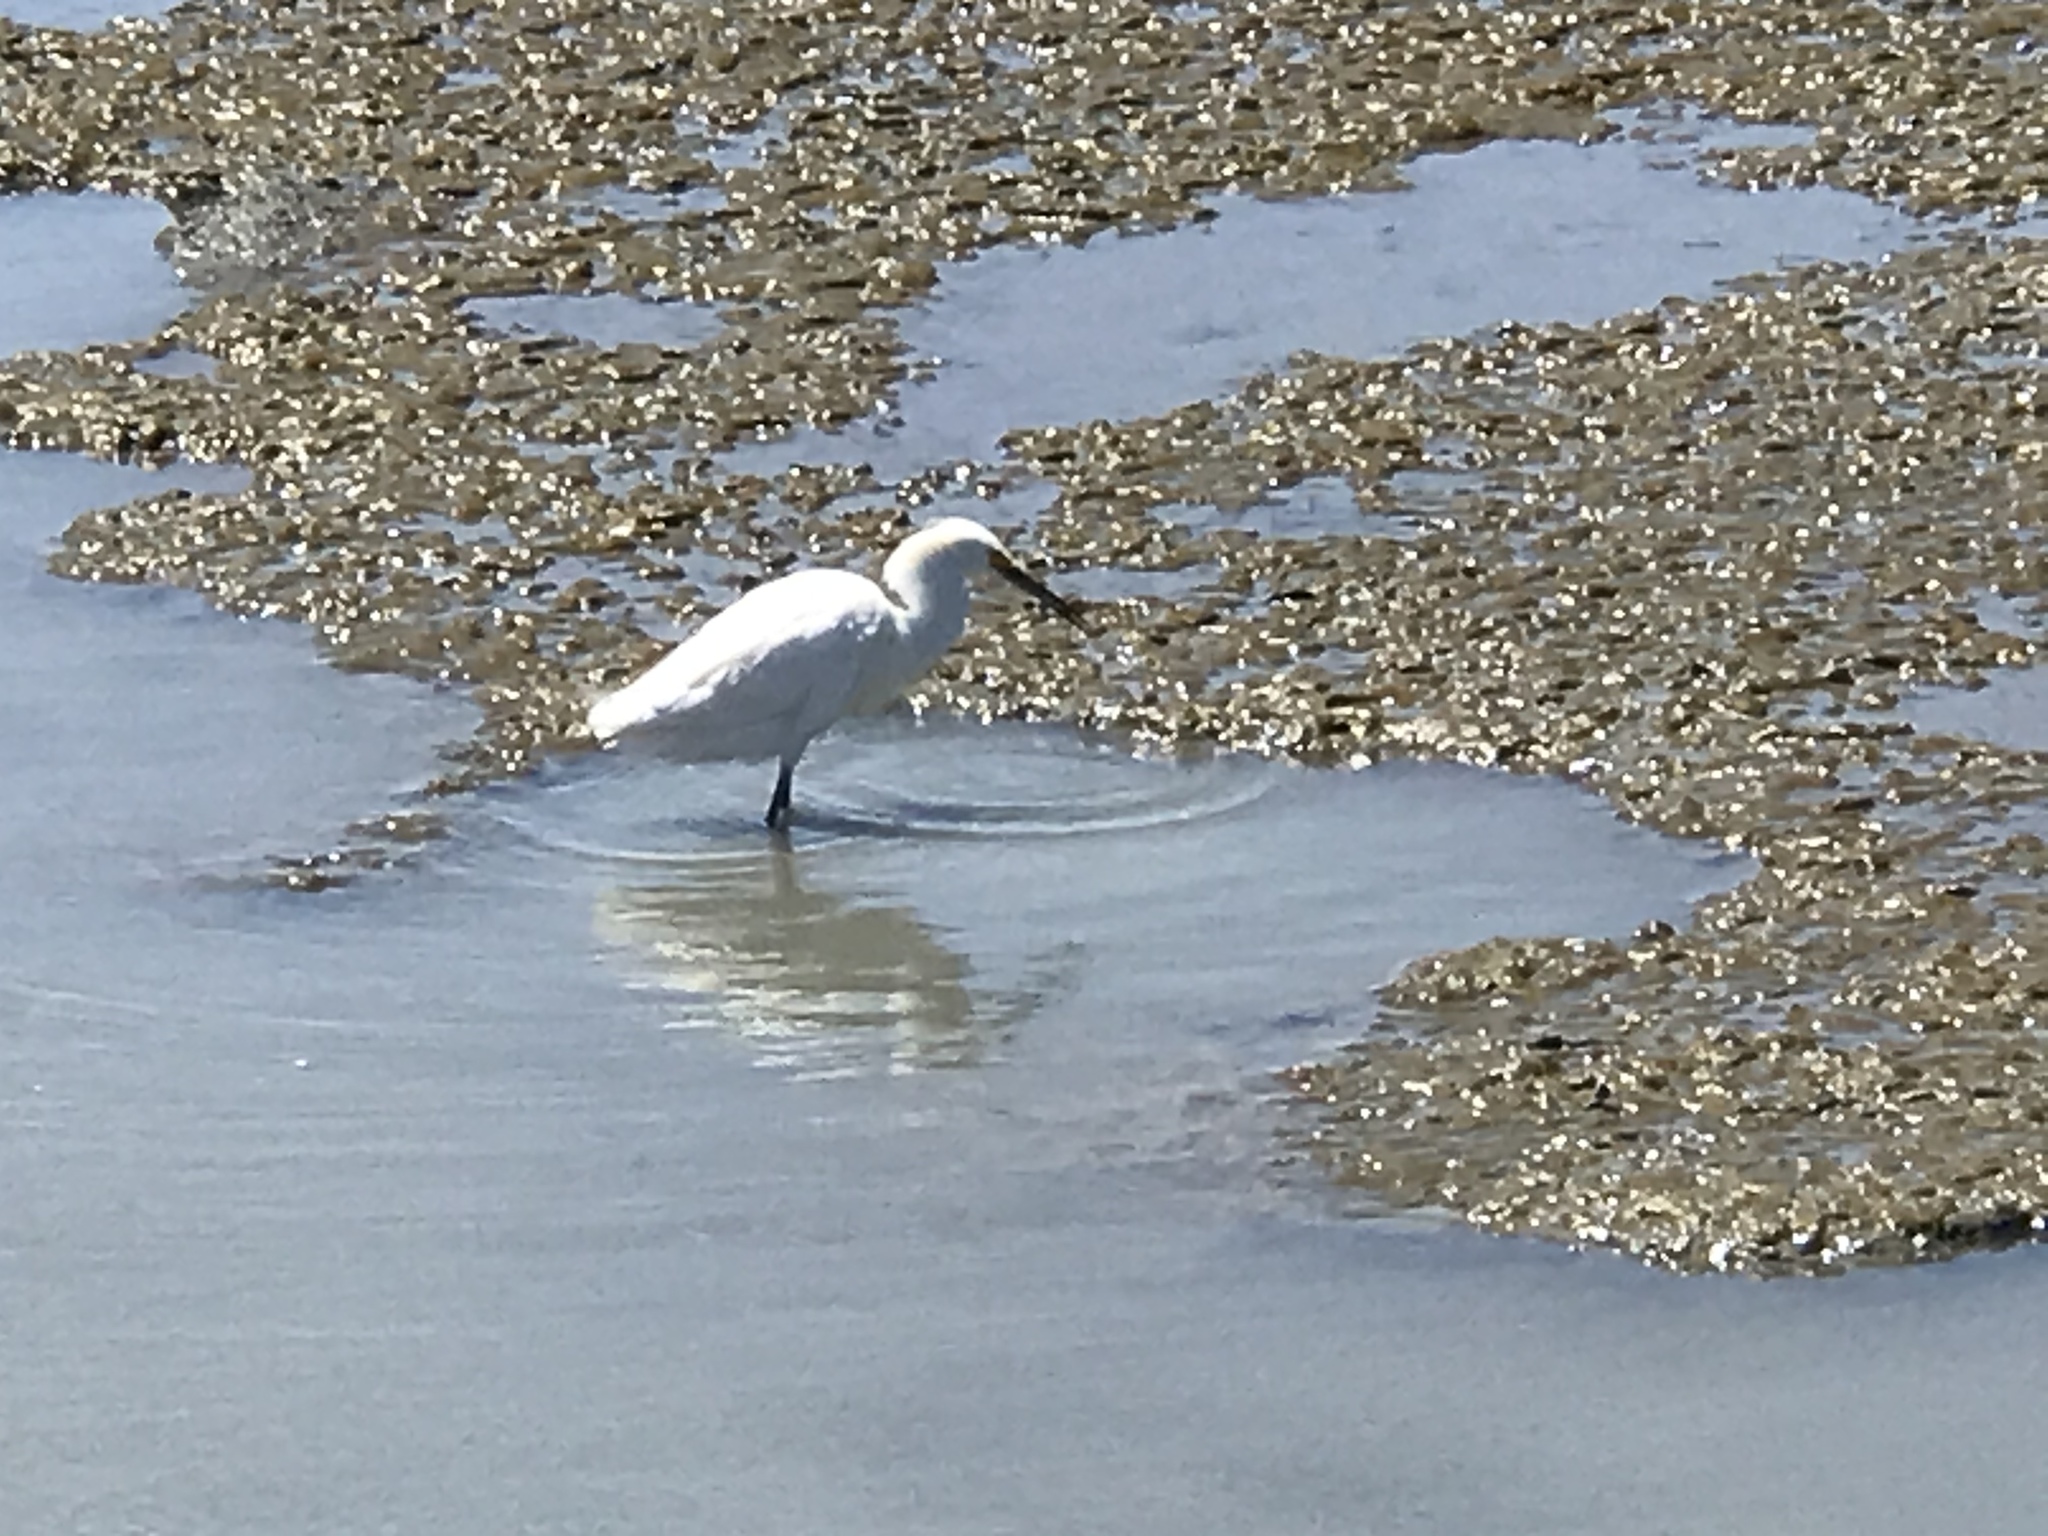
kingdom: Animalia
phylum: Chordata
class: Aves
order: Pelecaniformes
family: Ardeidae
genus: Egretta
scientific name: Egretta thula
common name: Snowy egret
